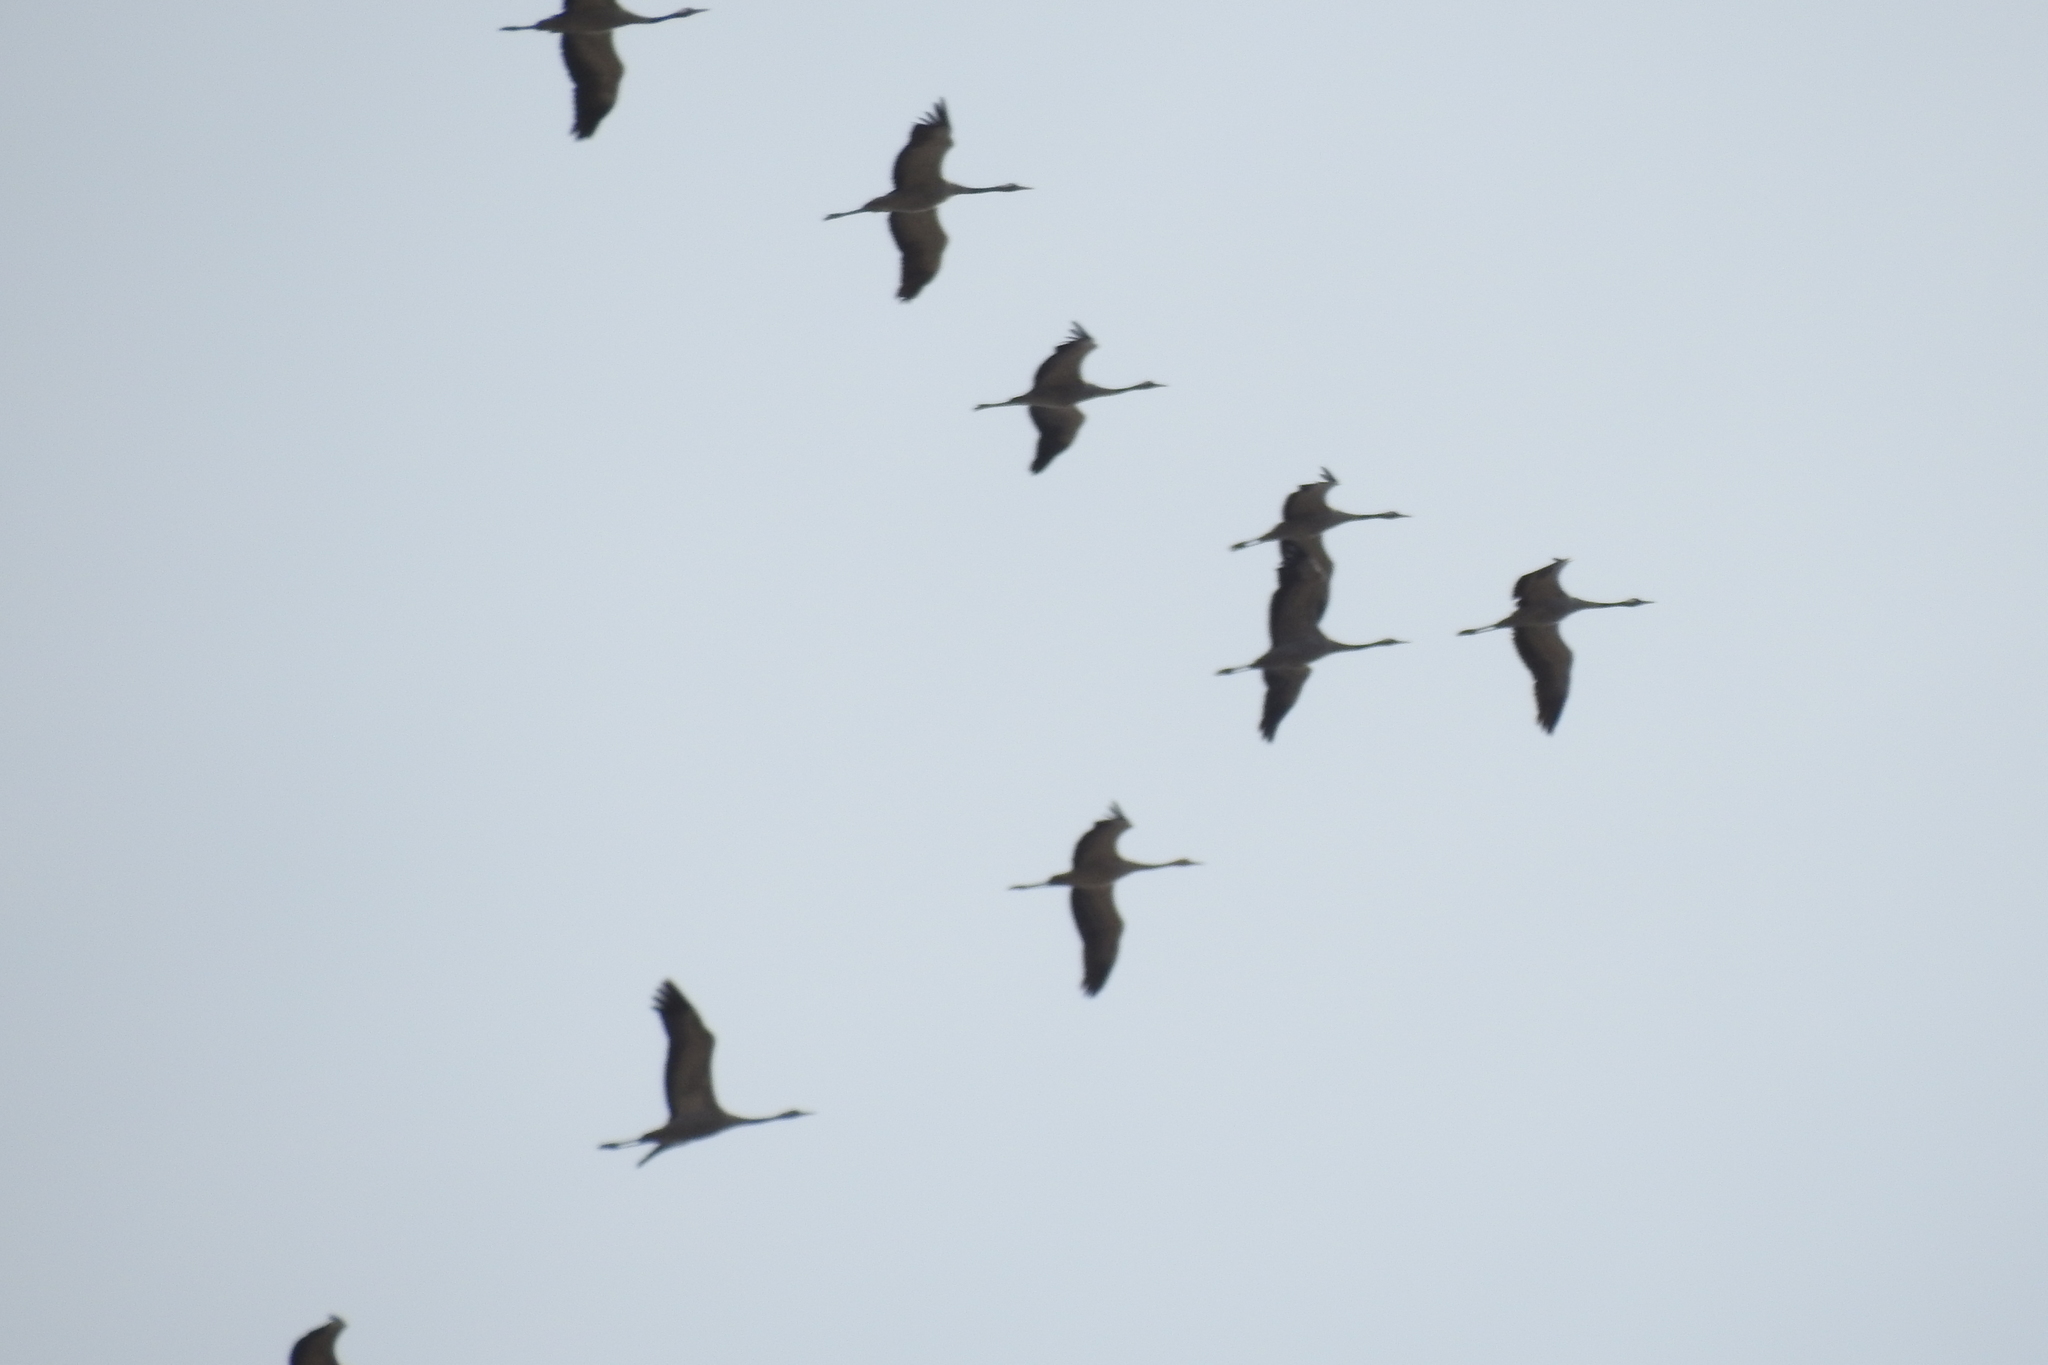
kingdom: Animalia
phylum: Chordata
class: Aves
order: Gruiformes
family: Gruidae
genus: Grus
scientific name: Grus grus
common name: Common crane
